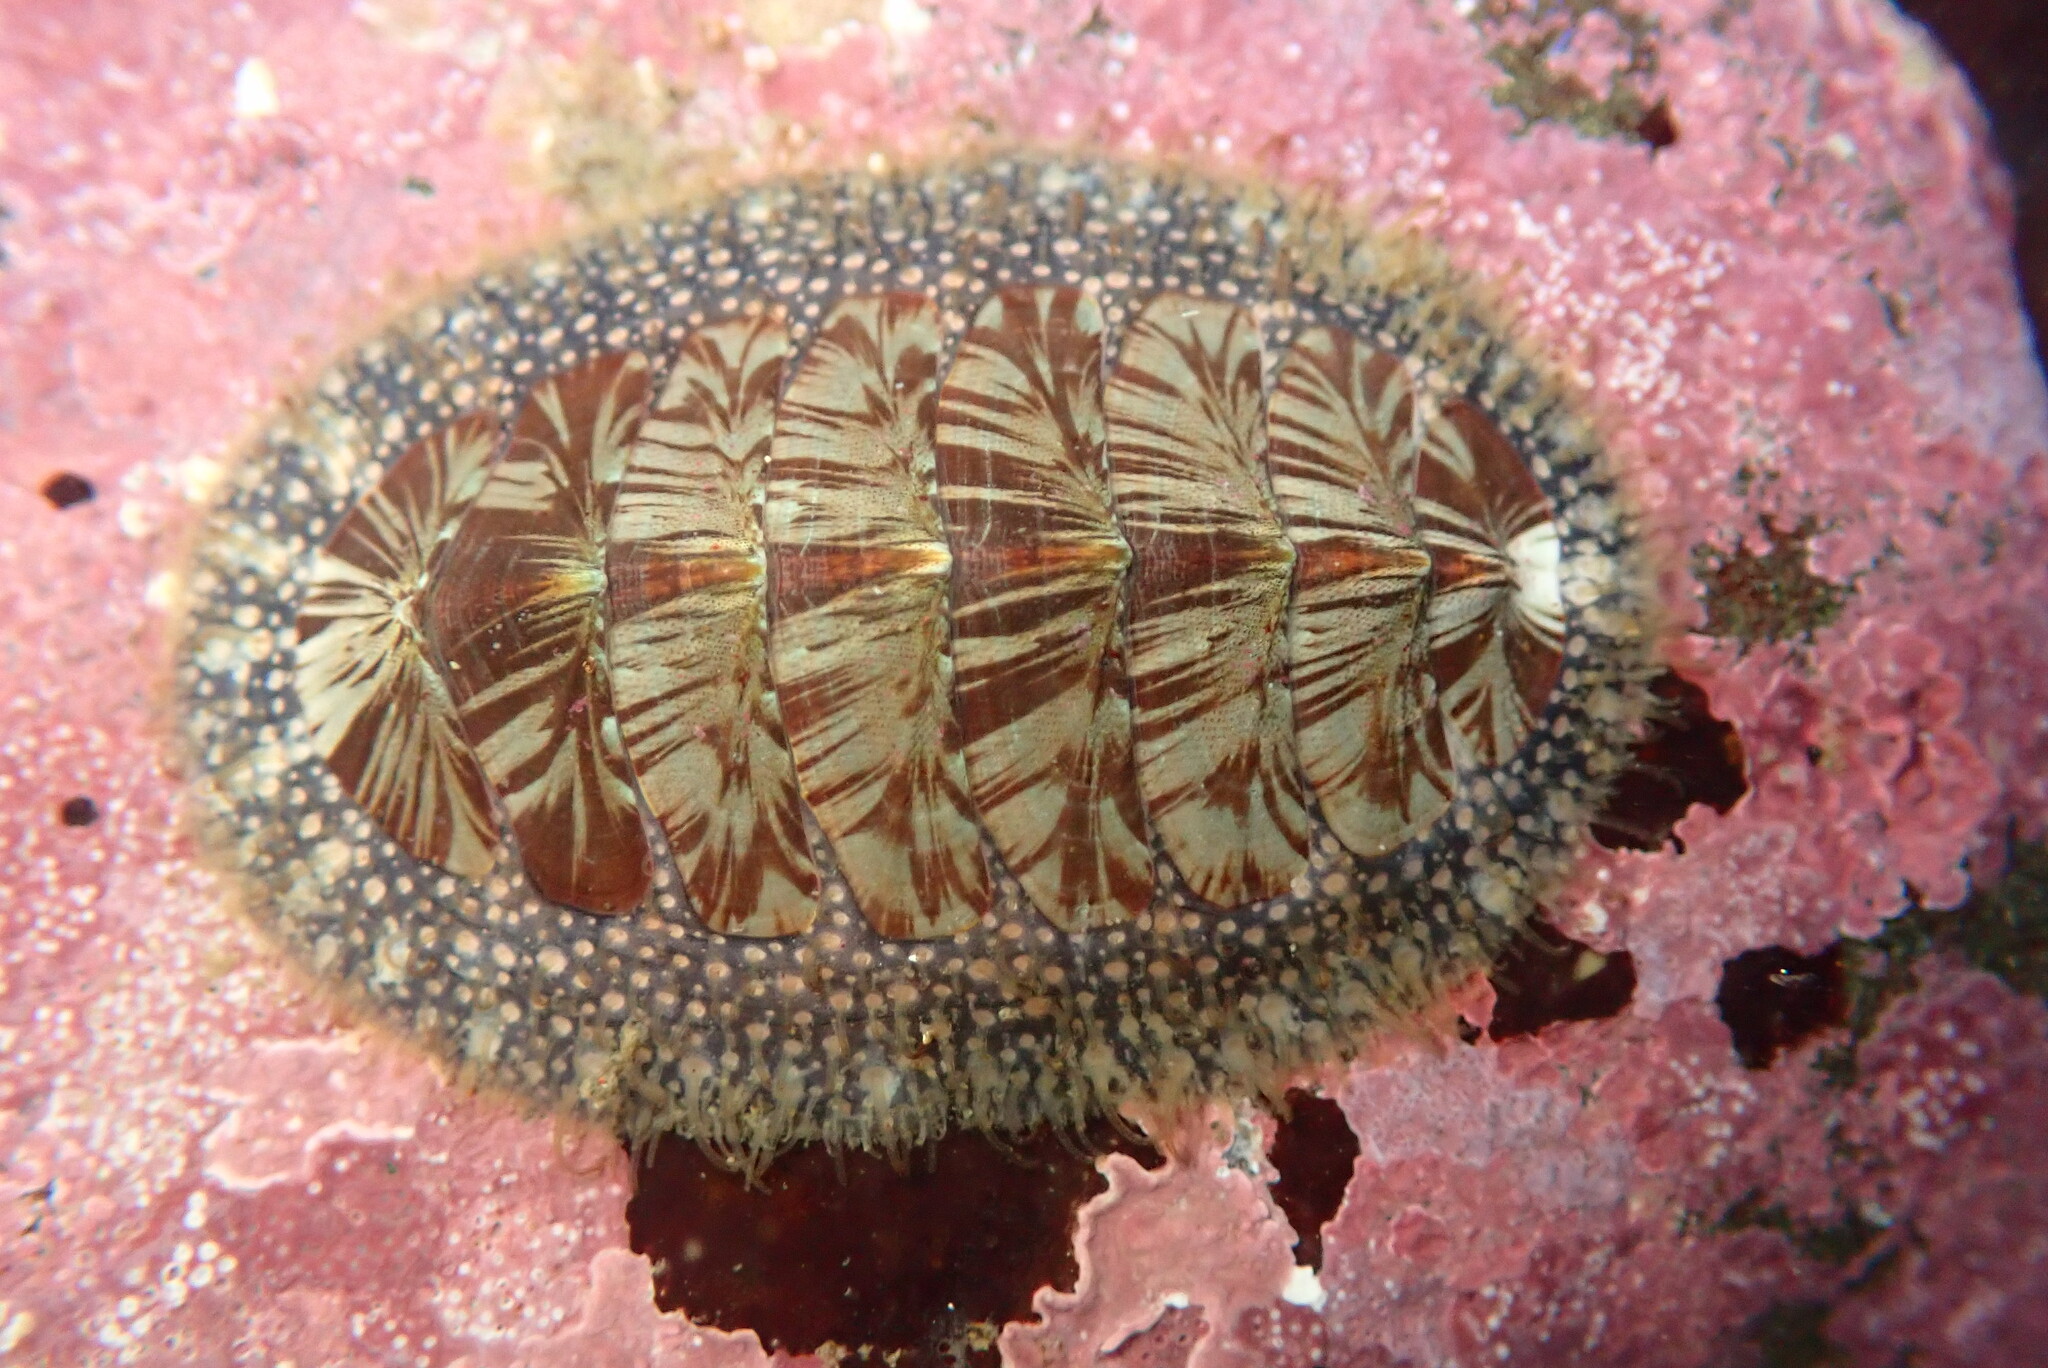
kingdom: Animalia
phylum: Mollusca
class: Polyplacophora
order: Chitonida
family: Mopaliidae
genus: Mopalia
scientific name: Mopalia lignosa
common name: Woody chiton
